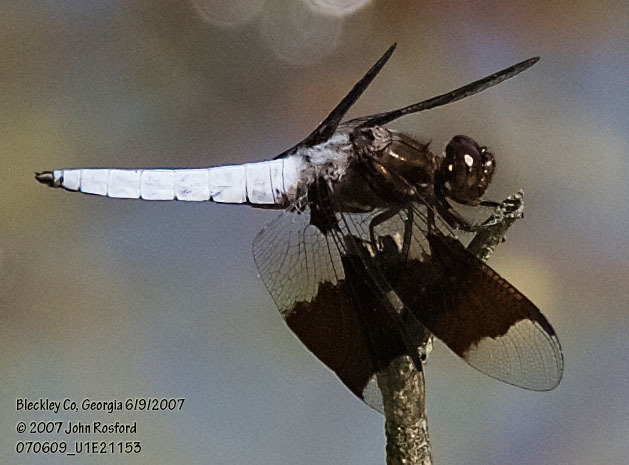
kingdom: Animalia
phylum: Arthropoda
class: Insecta
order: Odonata
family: Libellulidae
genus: Plathemis
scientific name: Plathemis lydia
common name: Common whitetail
